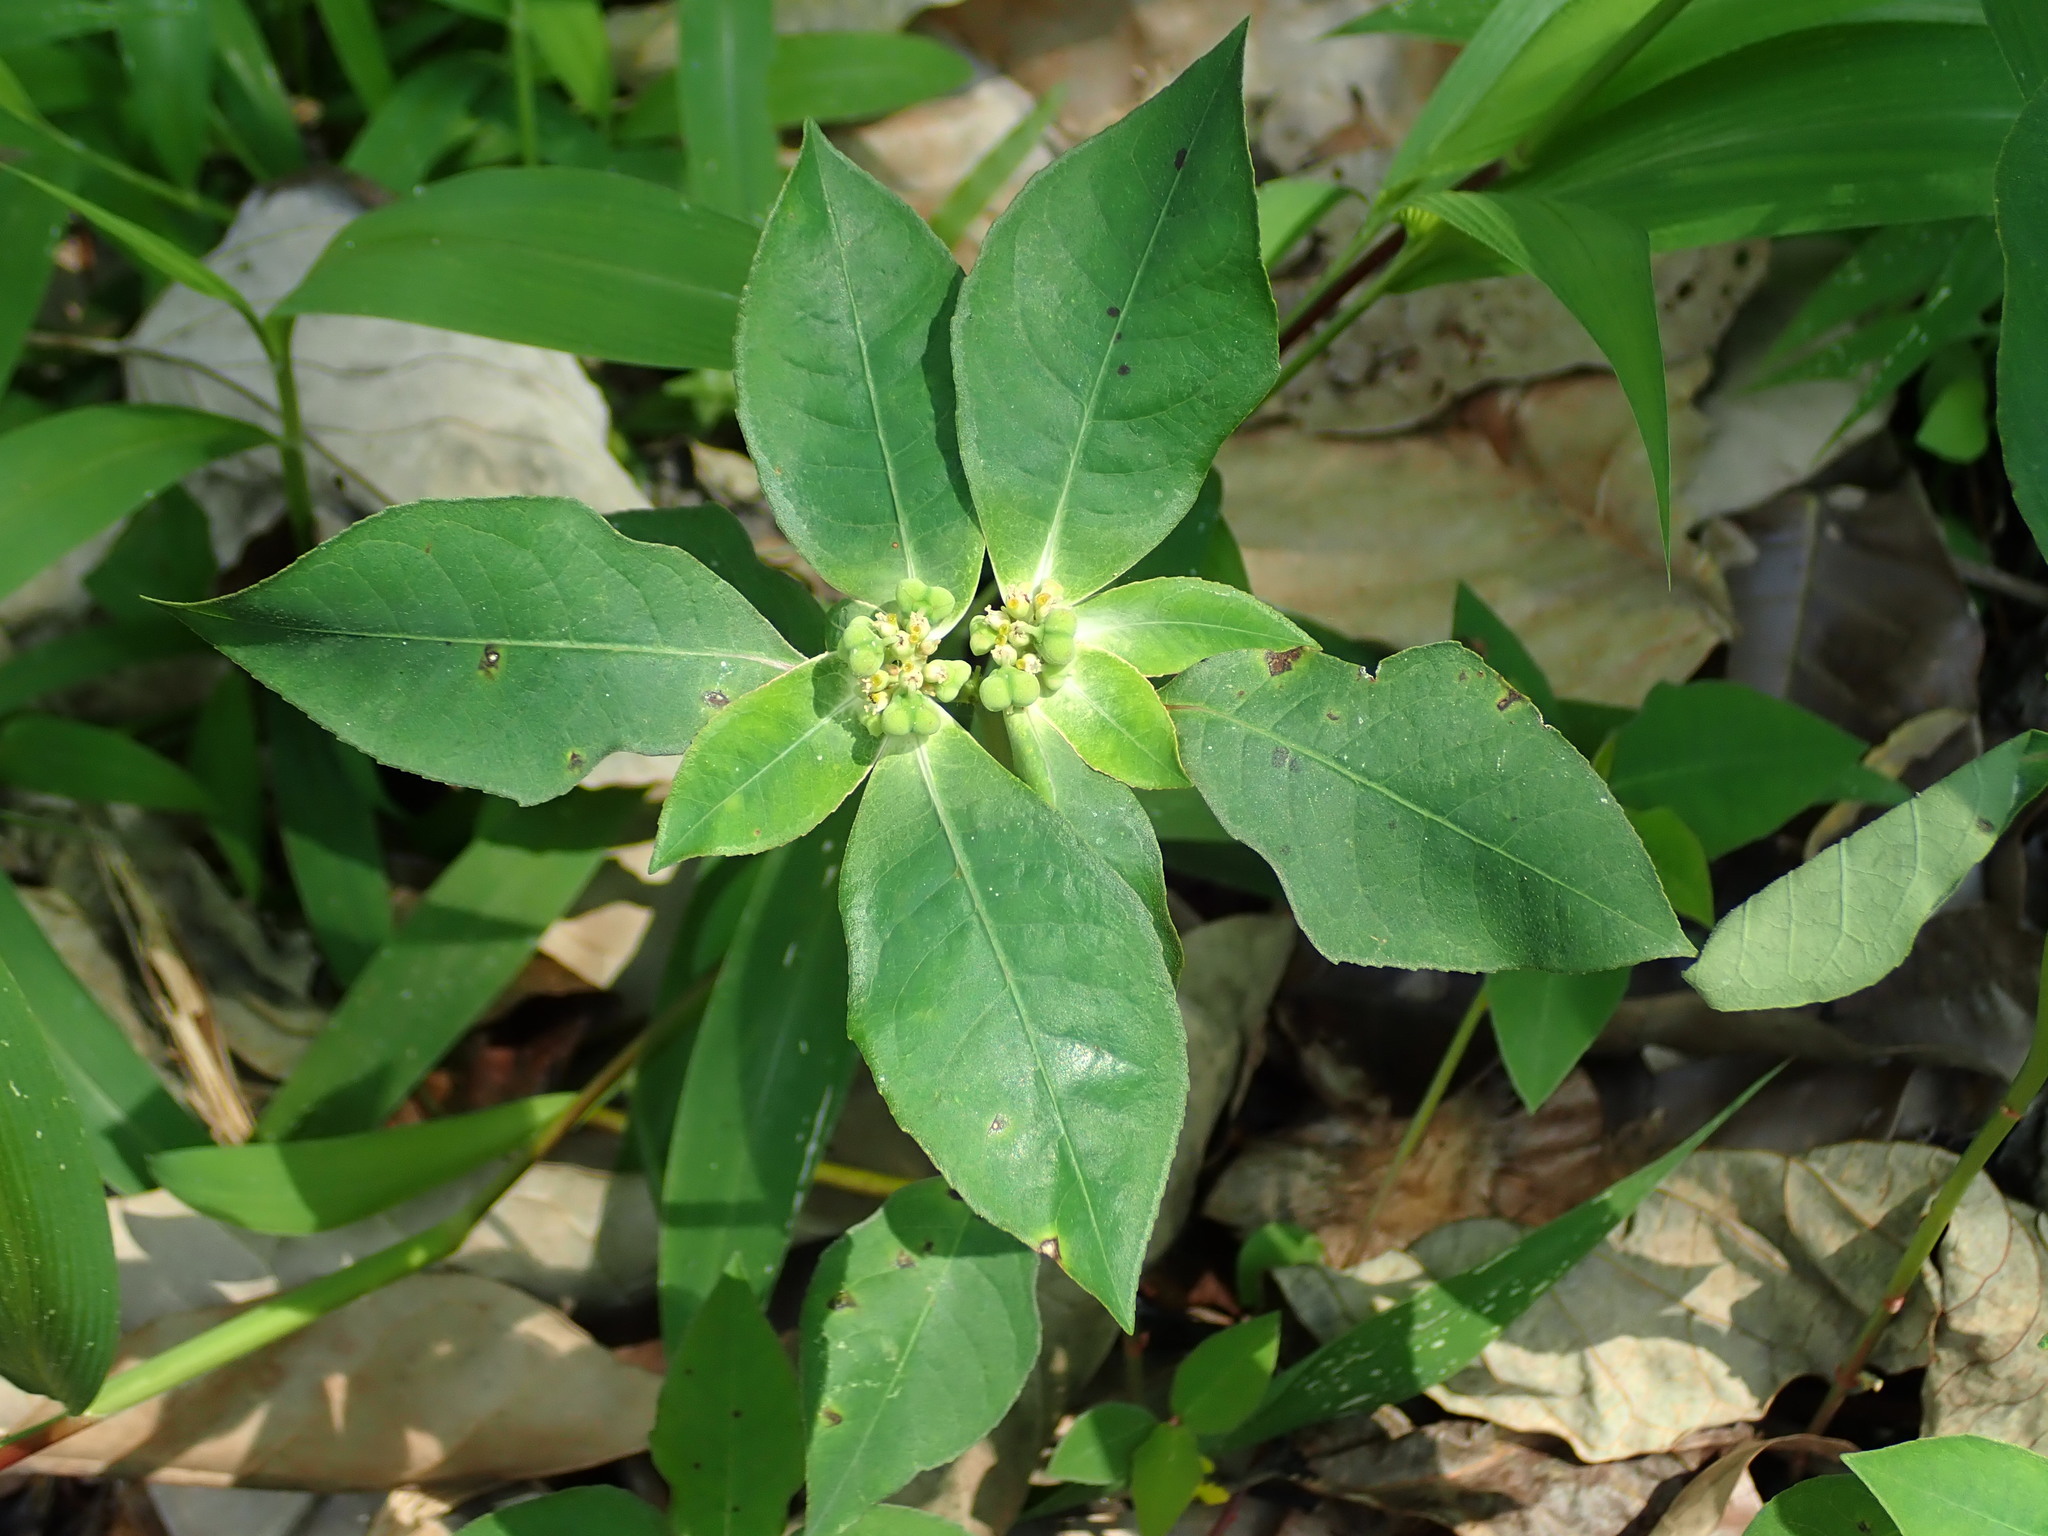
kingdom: Plantae
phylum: Tracheophyta
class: Magnoliopsida
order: Malpighiales
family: Euphorbiaceae
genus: Euphorbia
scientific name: Euphorbia heterophylla
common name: Mexican fireplant
